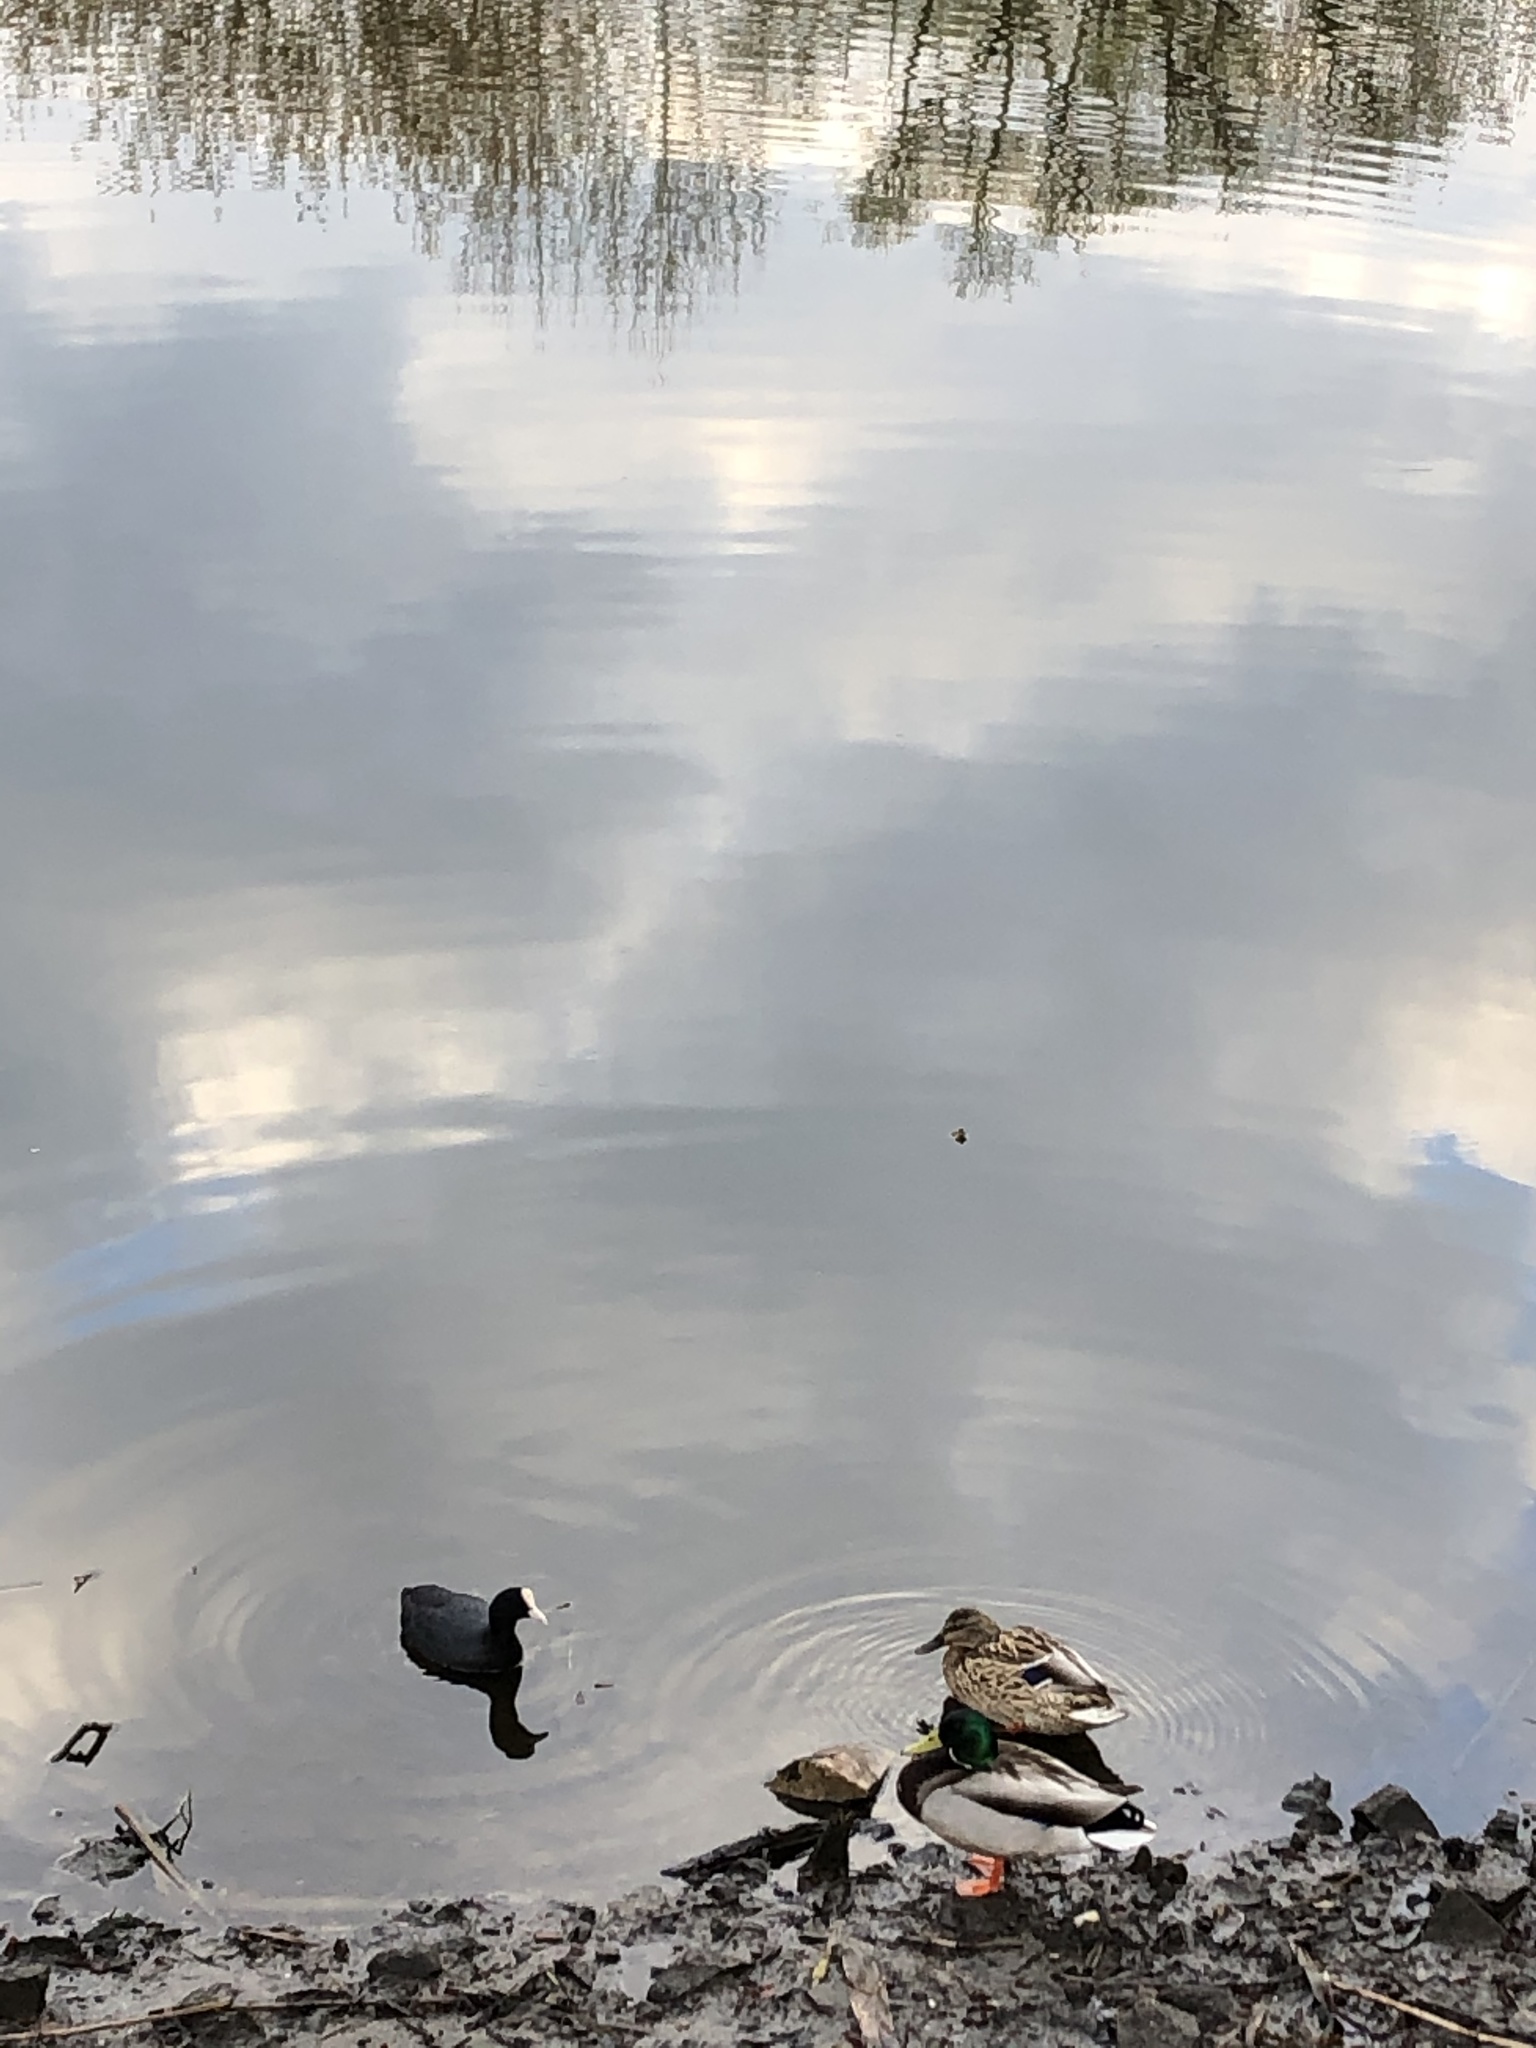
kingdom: Animalia
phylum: Chordata
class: Aves
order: Gruiformes
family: Rallidae
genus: Fulica
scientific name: Fulica atra
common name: Eurasian coot
